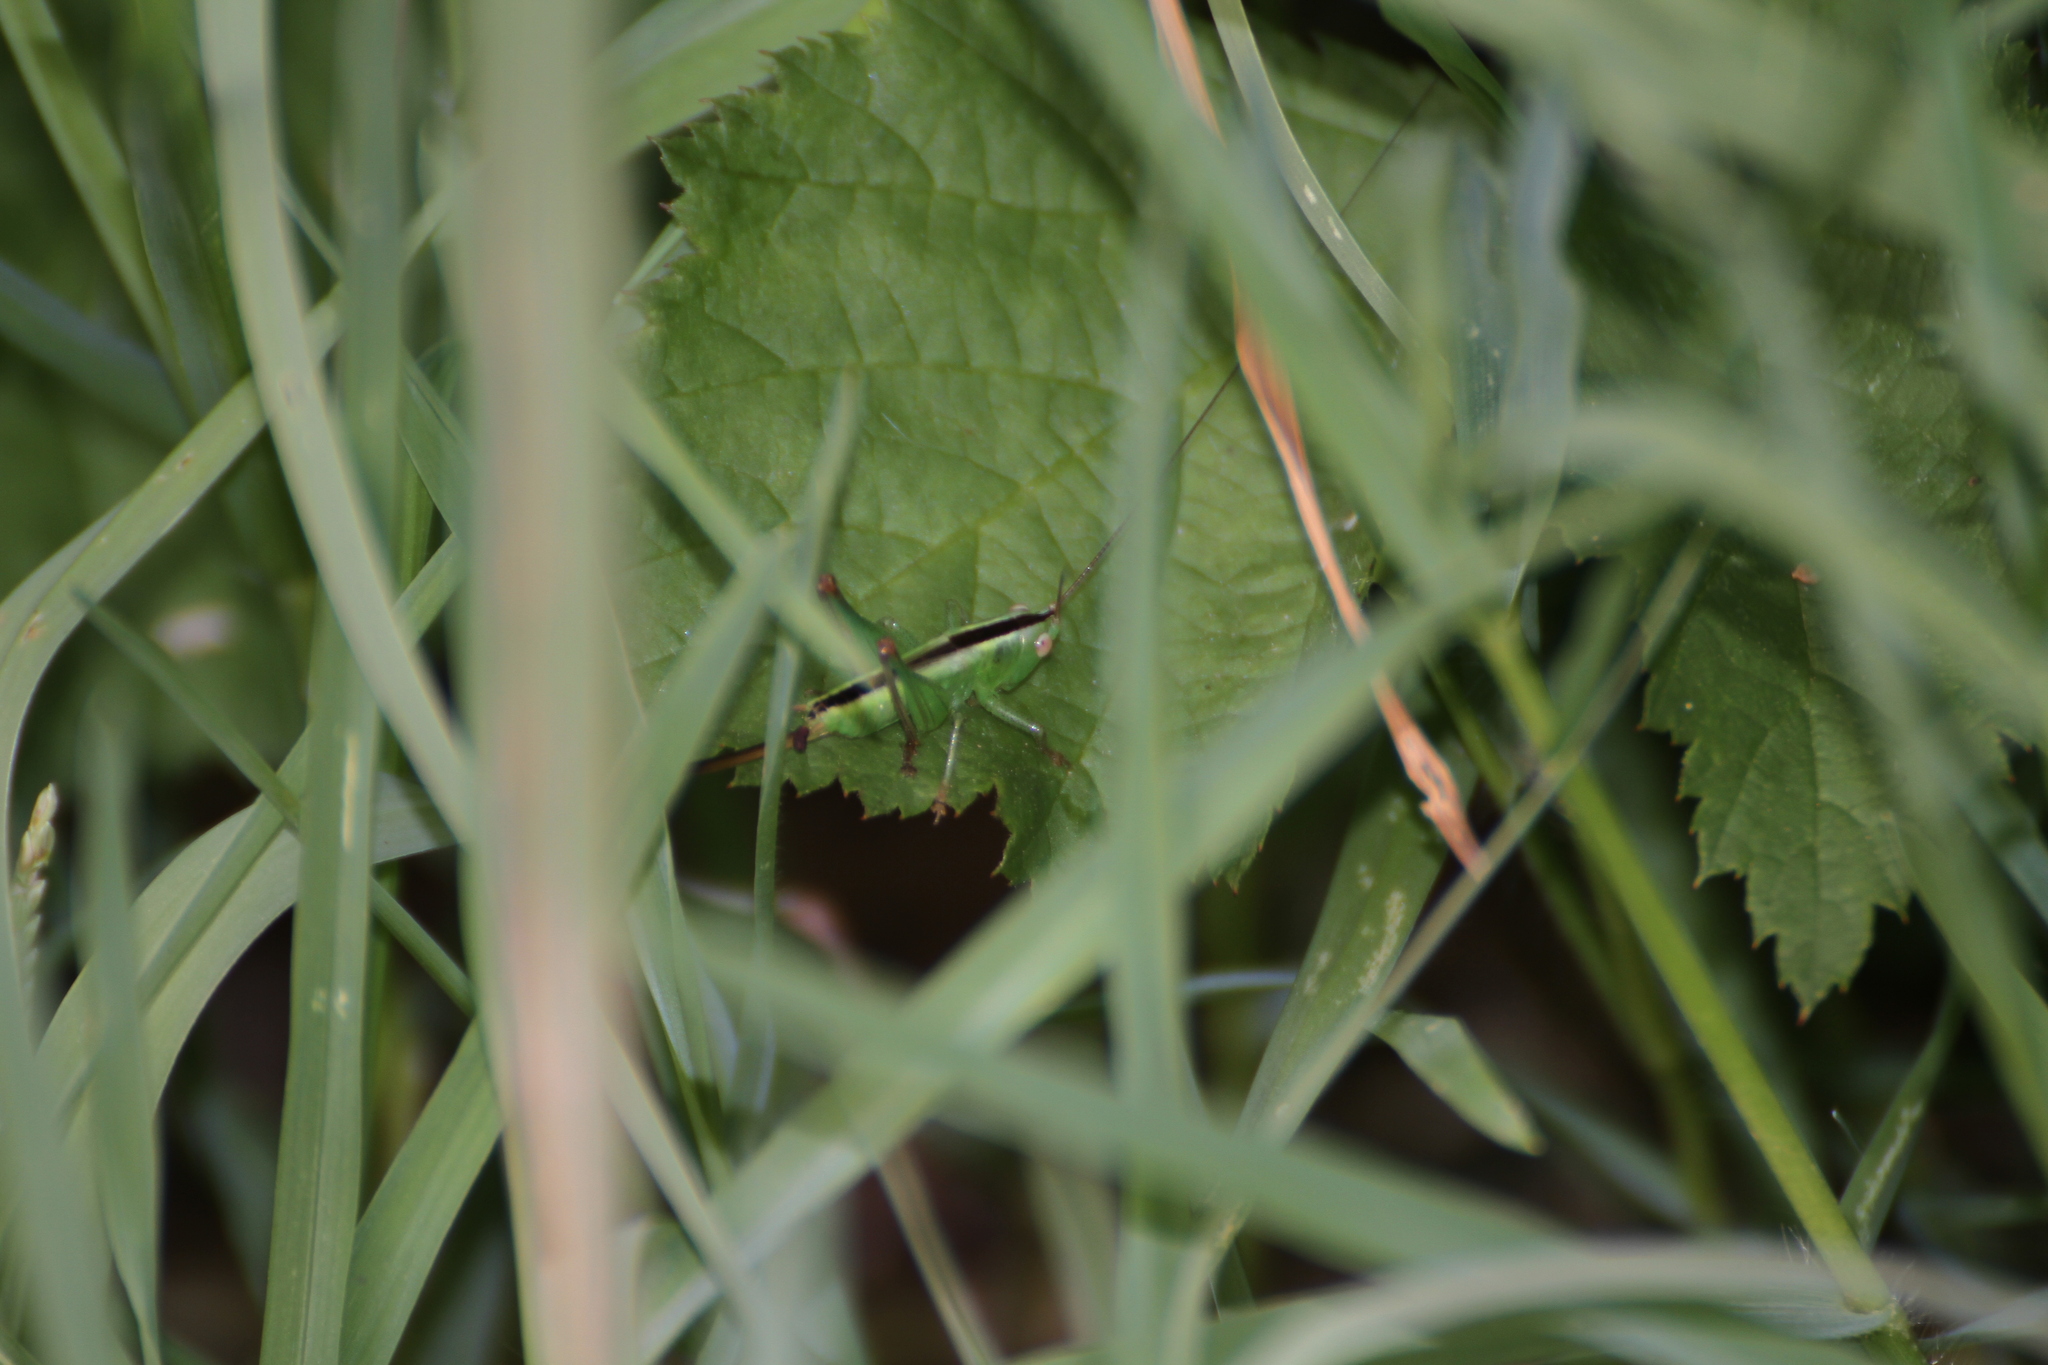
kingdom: Animalia
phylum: Arthropoda
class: Insecta
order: Orthoptera
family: Tettigoniidae
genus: Conocephalus
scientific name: Conocephalus fuscus
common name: Long-winged conehead
